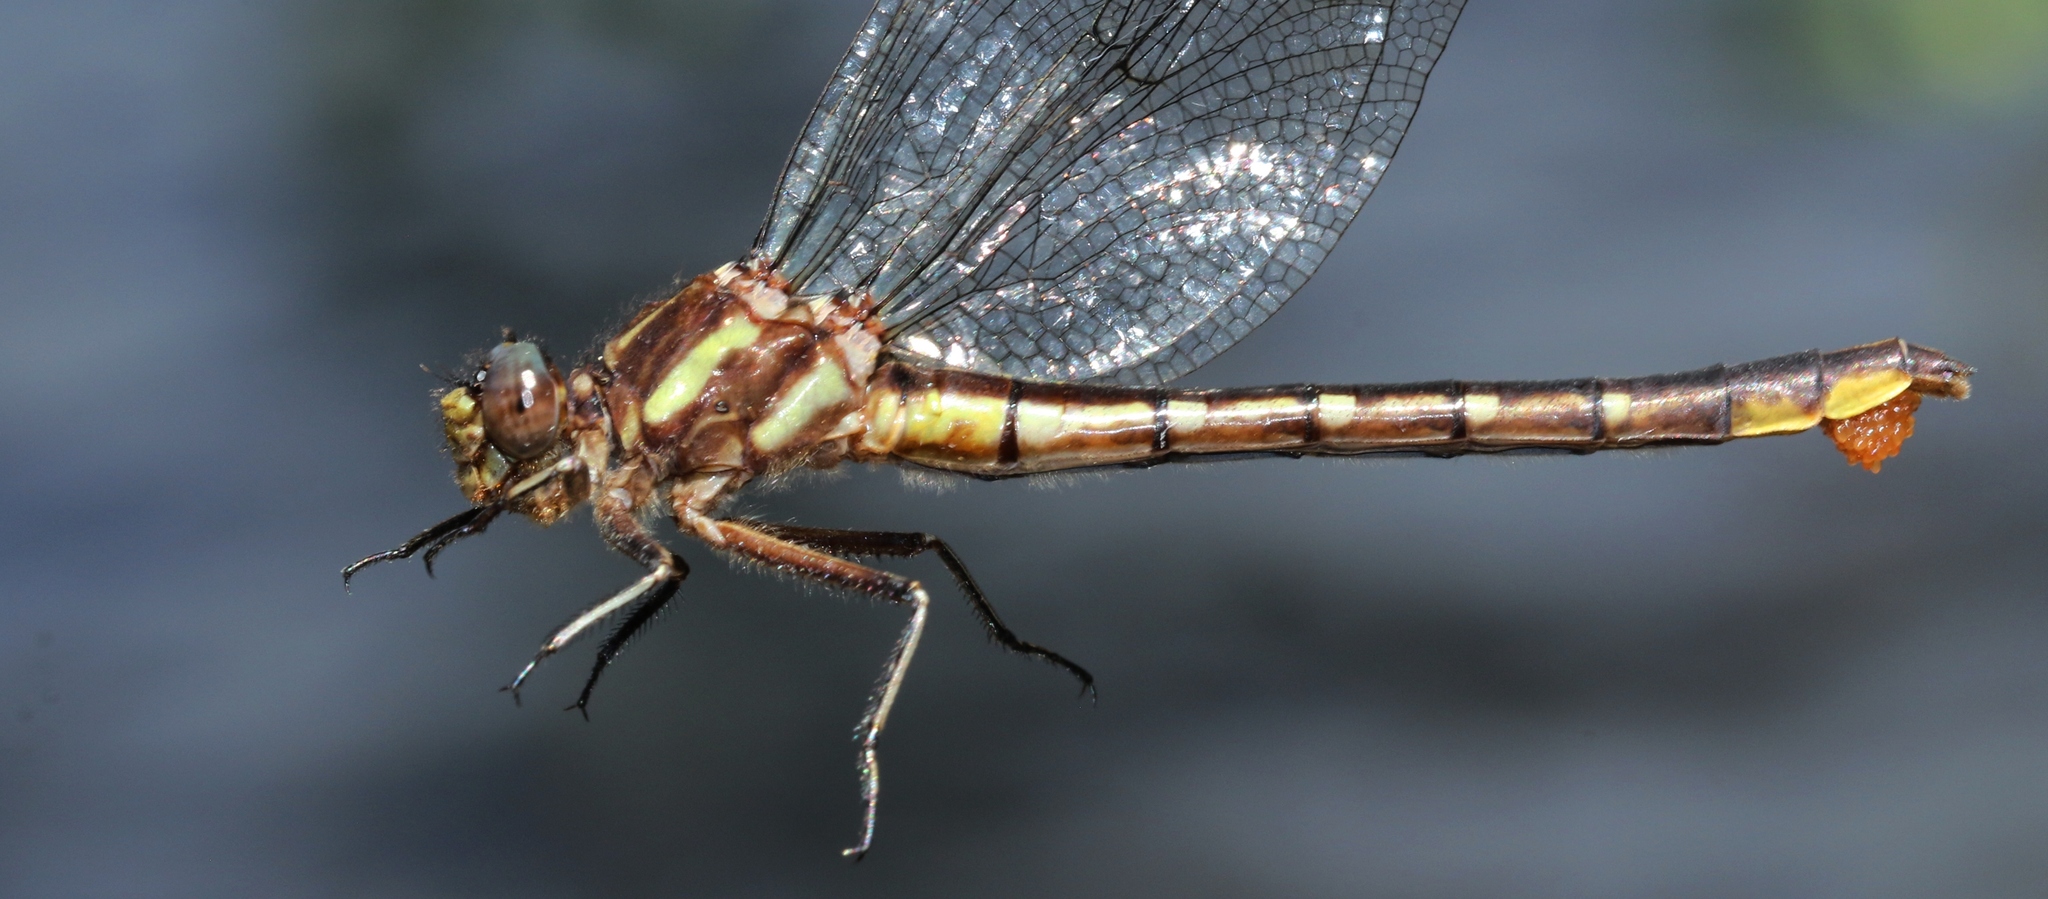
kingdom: Animalia
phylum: Arthropoda
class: Insecta
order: Odonata
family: Gomphidae
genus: Phanogomphus
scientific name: Phanogomphus exilis
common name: Lancet clubtail
